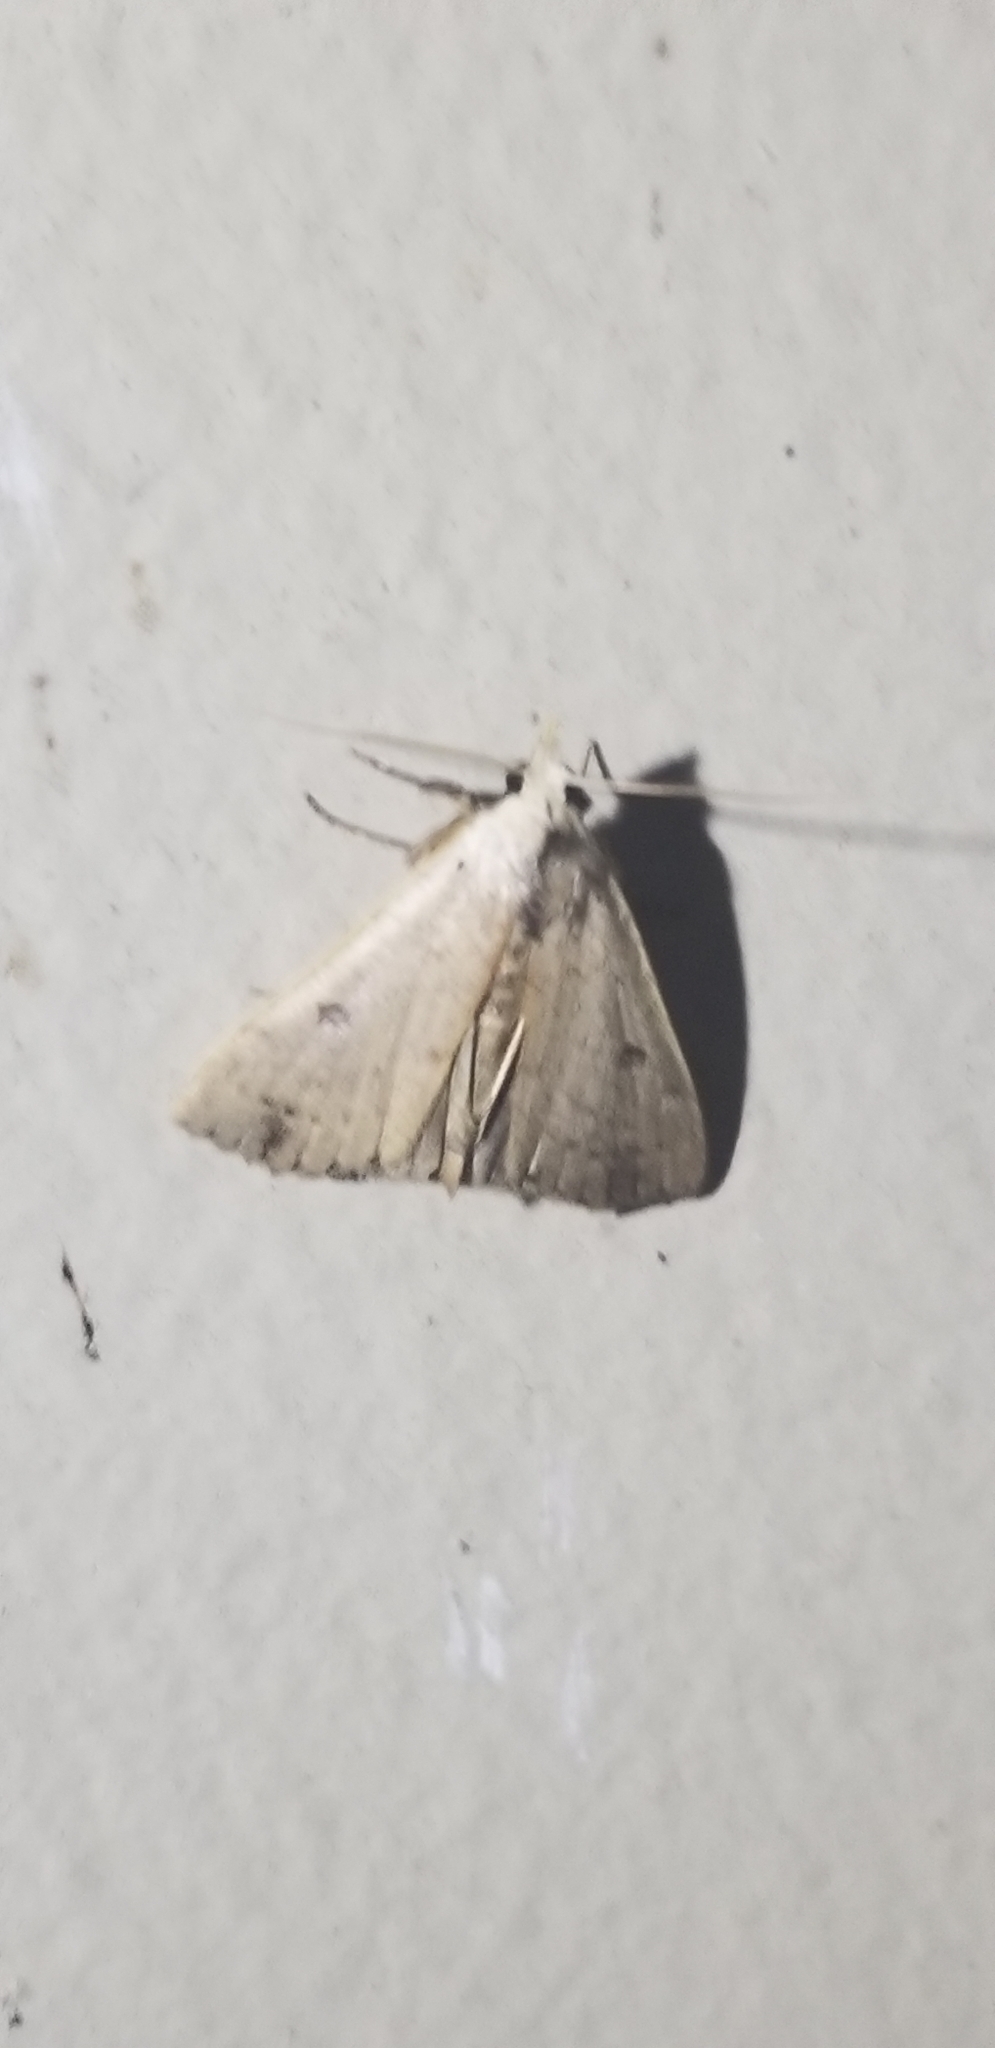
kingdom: Animalia
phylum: Arthropoda
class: Insecta
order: Lepidoptera
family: Erebidae
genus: Scolecocampa
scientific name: Scolecocampa liburna
